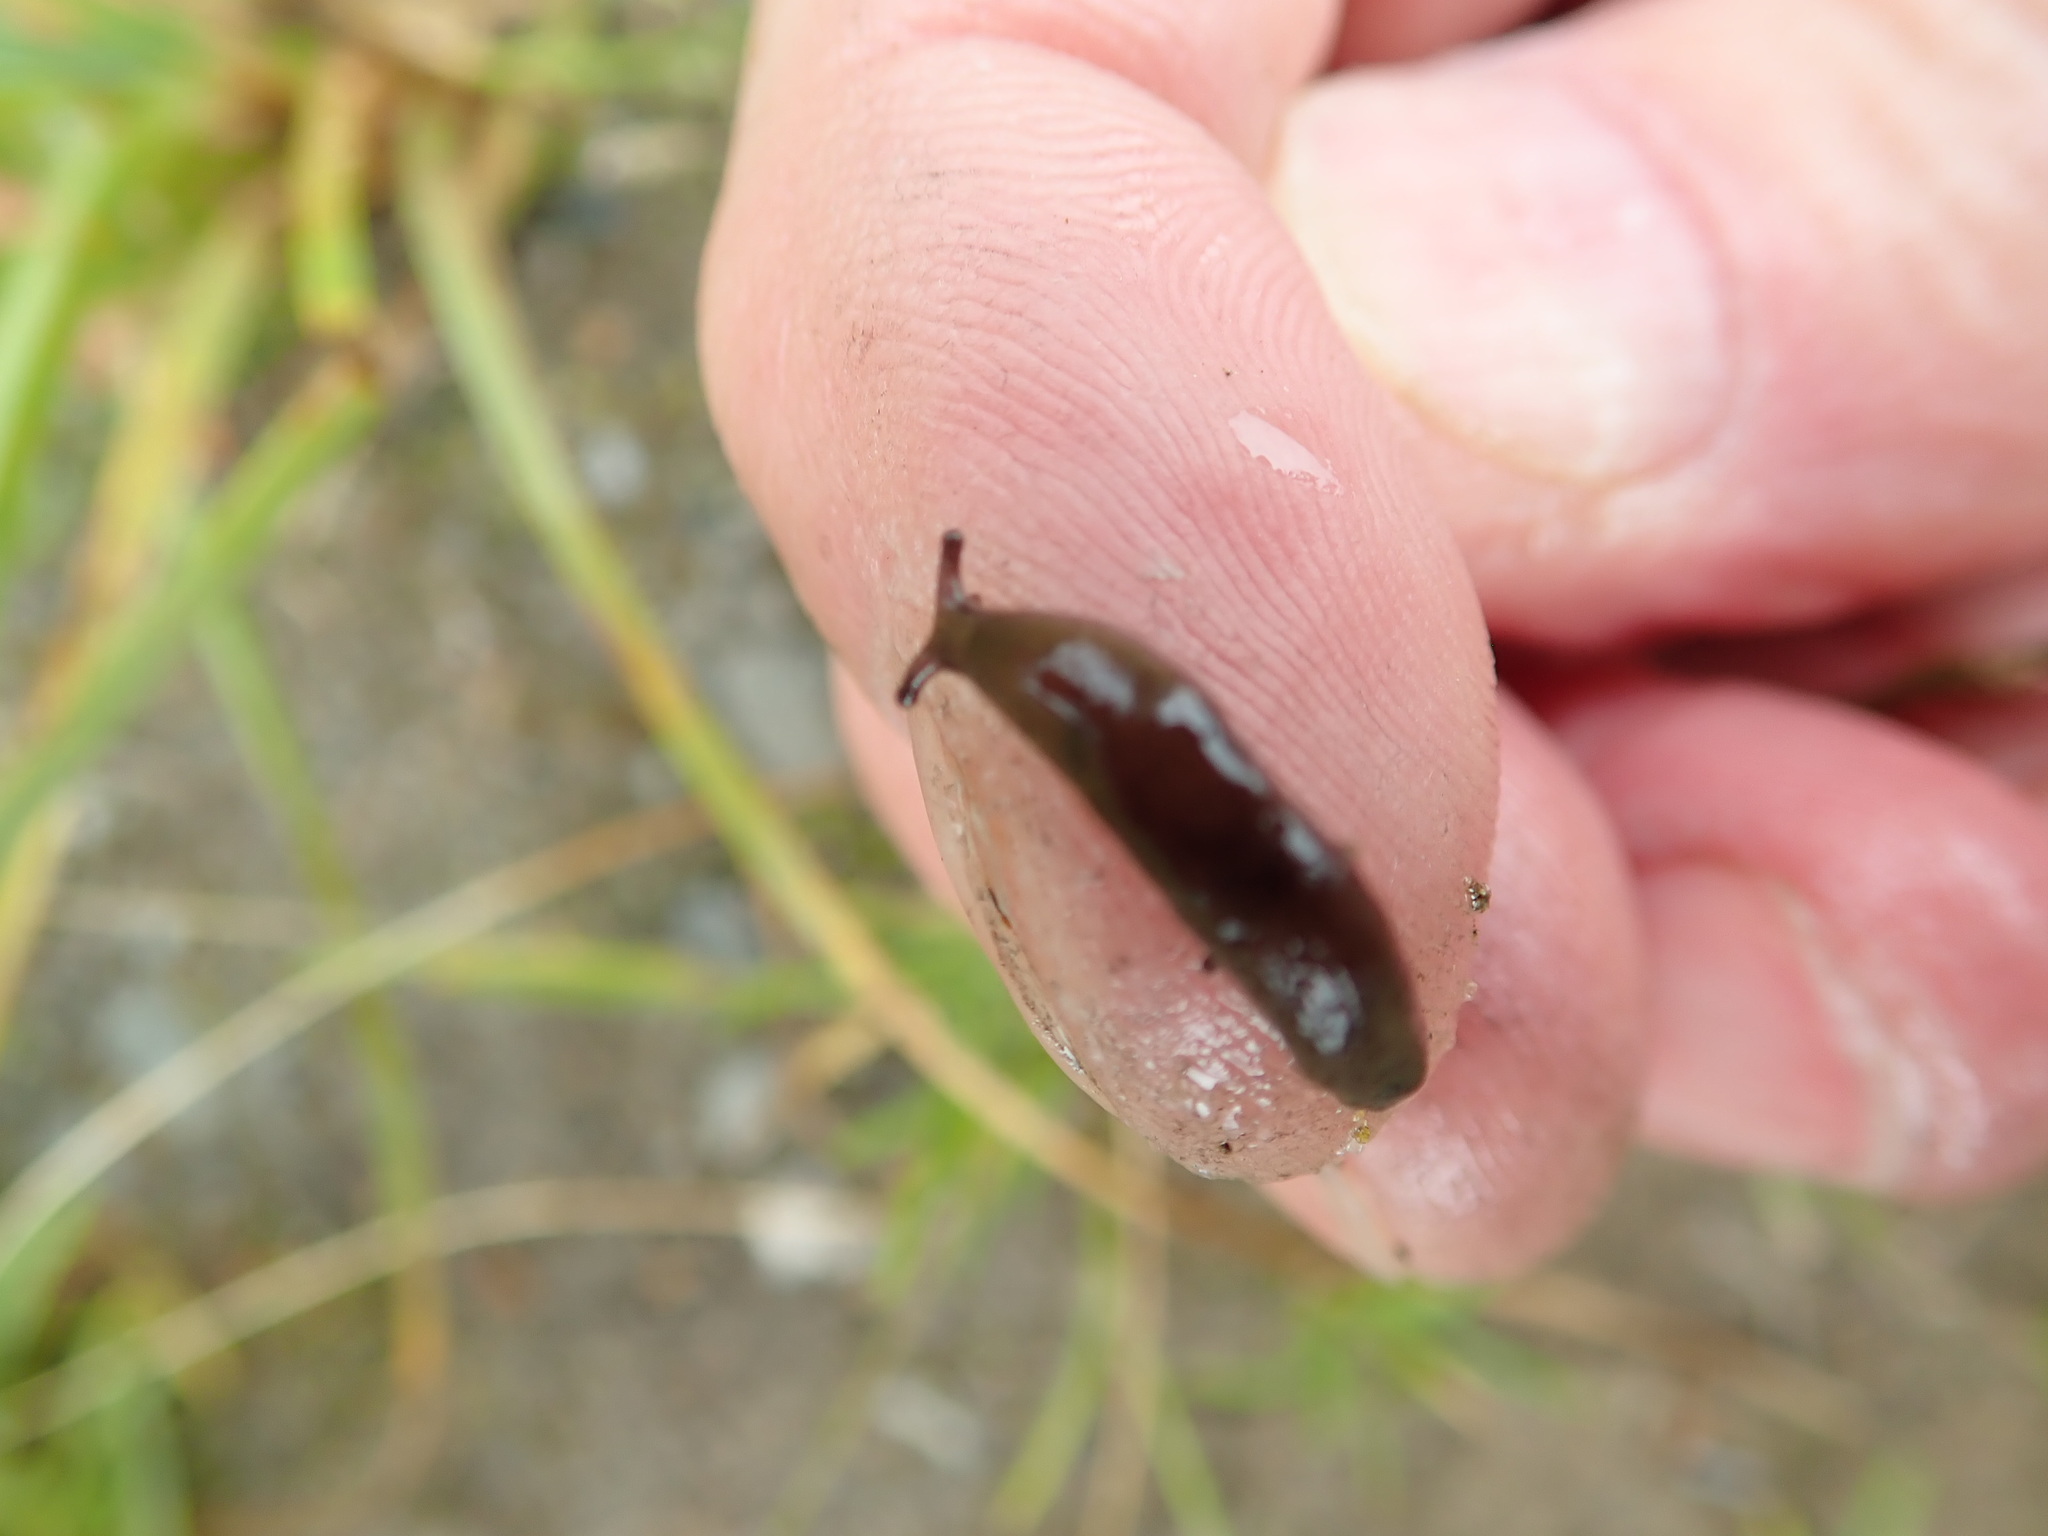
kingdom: Animalia
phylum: Mollusca
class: Gastropoda
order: Stylommatophora
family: Agriolimacidae
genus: Deroceras
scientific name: Deroceras laeve
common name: Marsh slug
